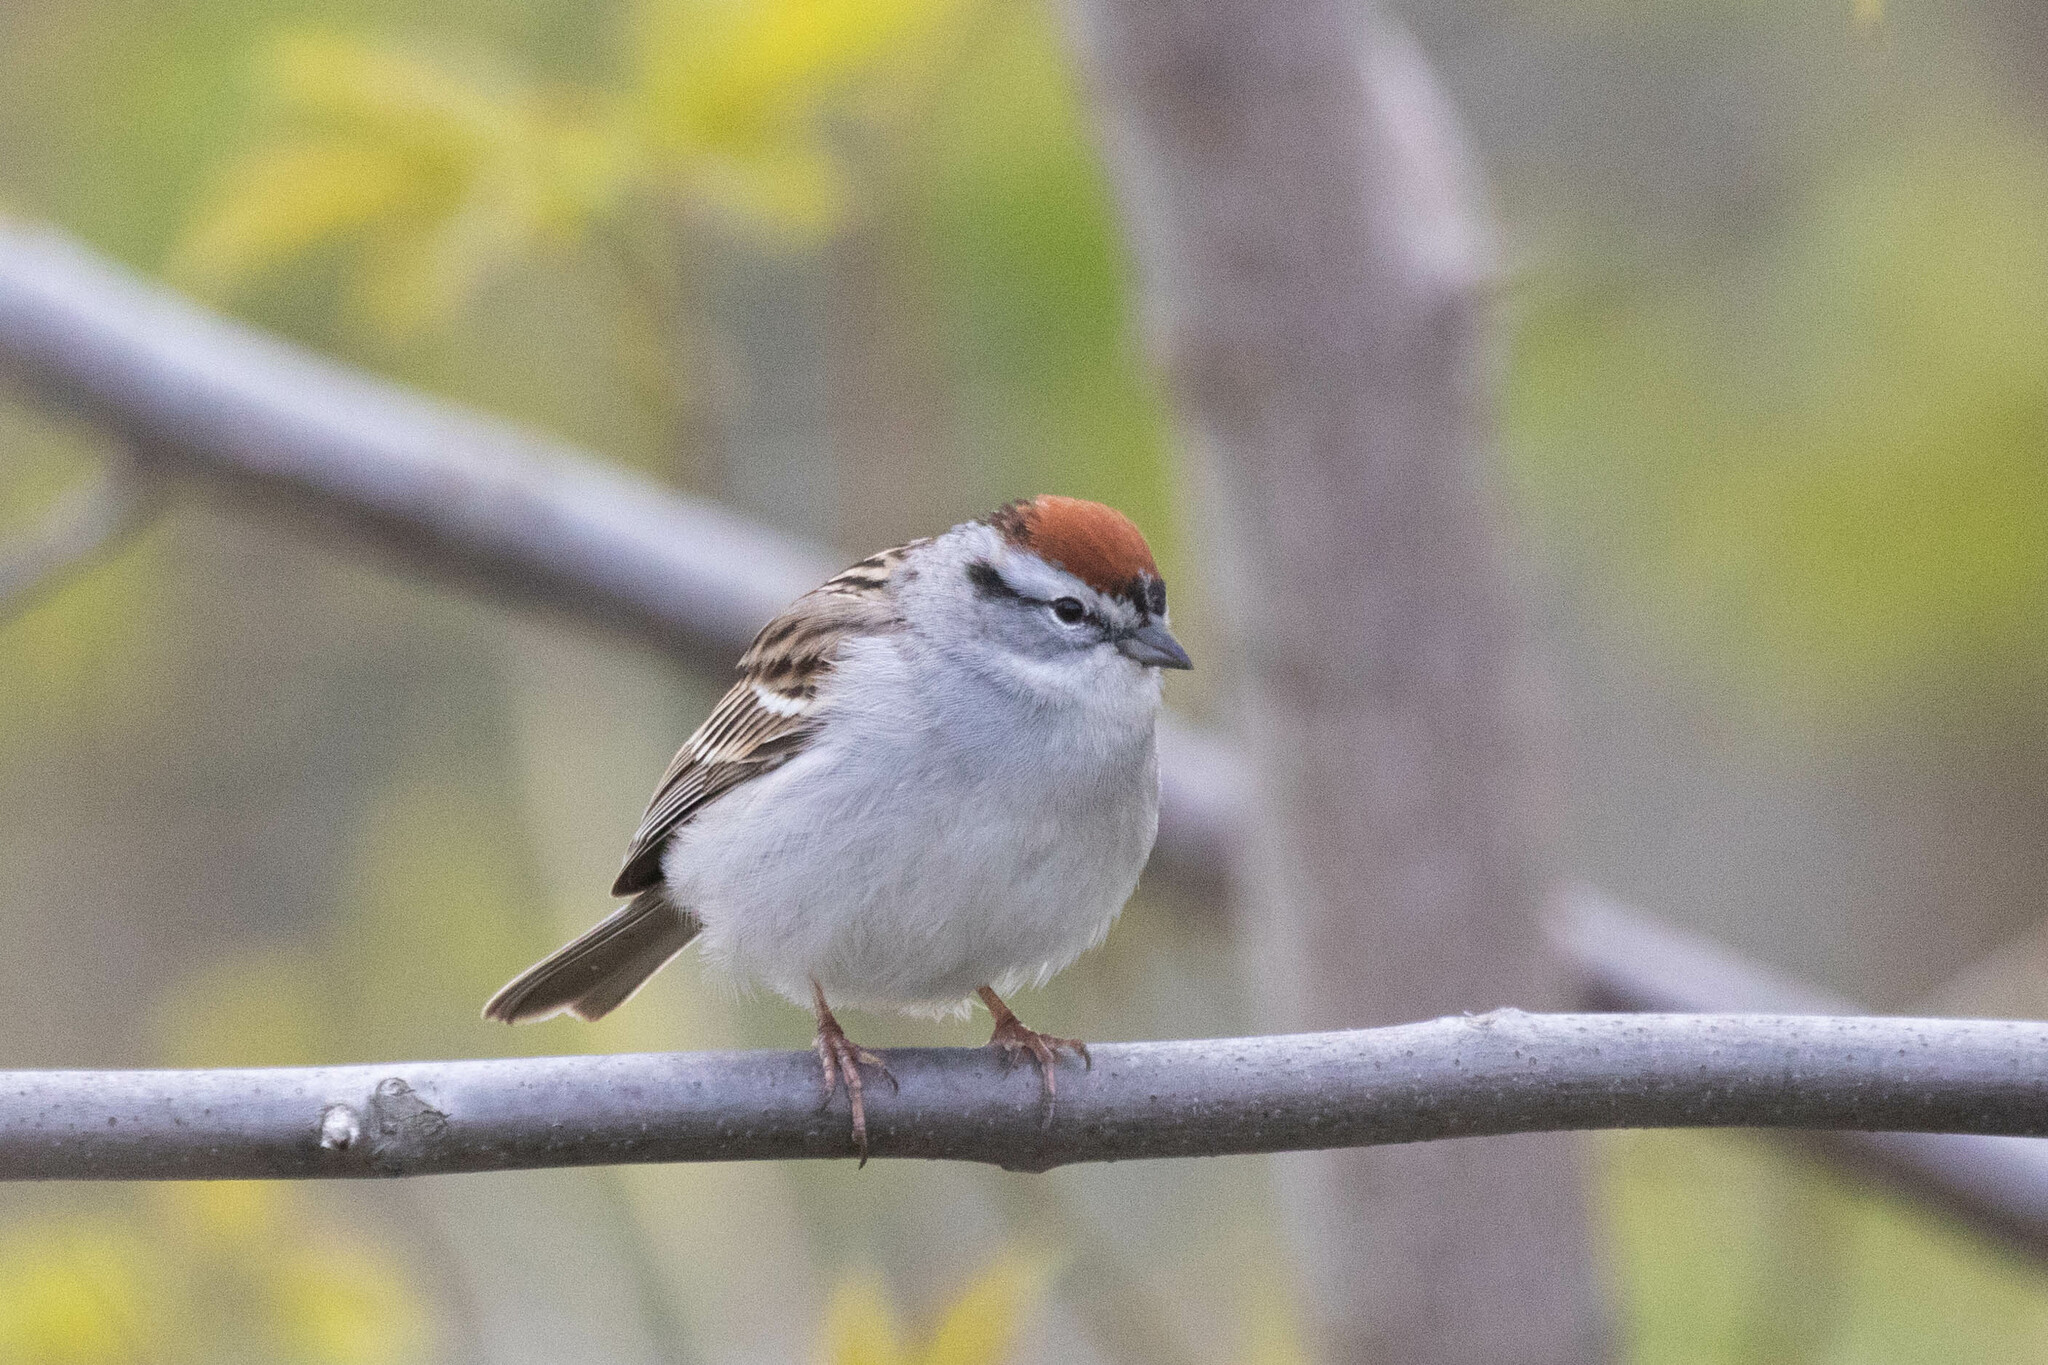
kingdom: Animalia
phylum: Chordata
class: Aves
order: Passeriformes
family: Passerellidae
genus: Spizella
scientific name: Spizella passerina
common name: Chipping sparrow
